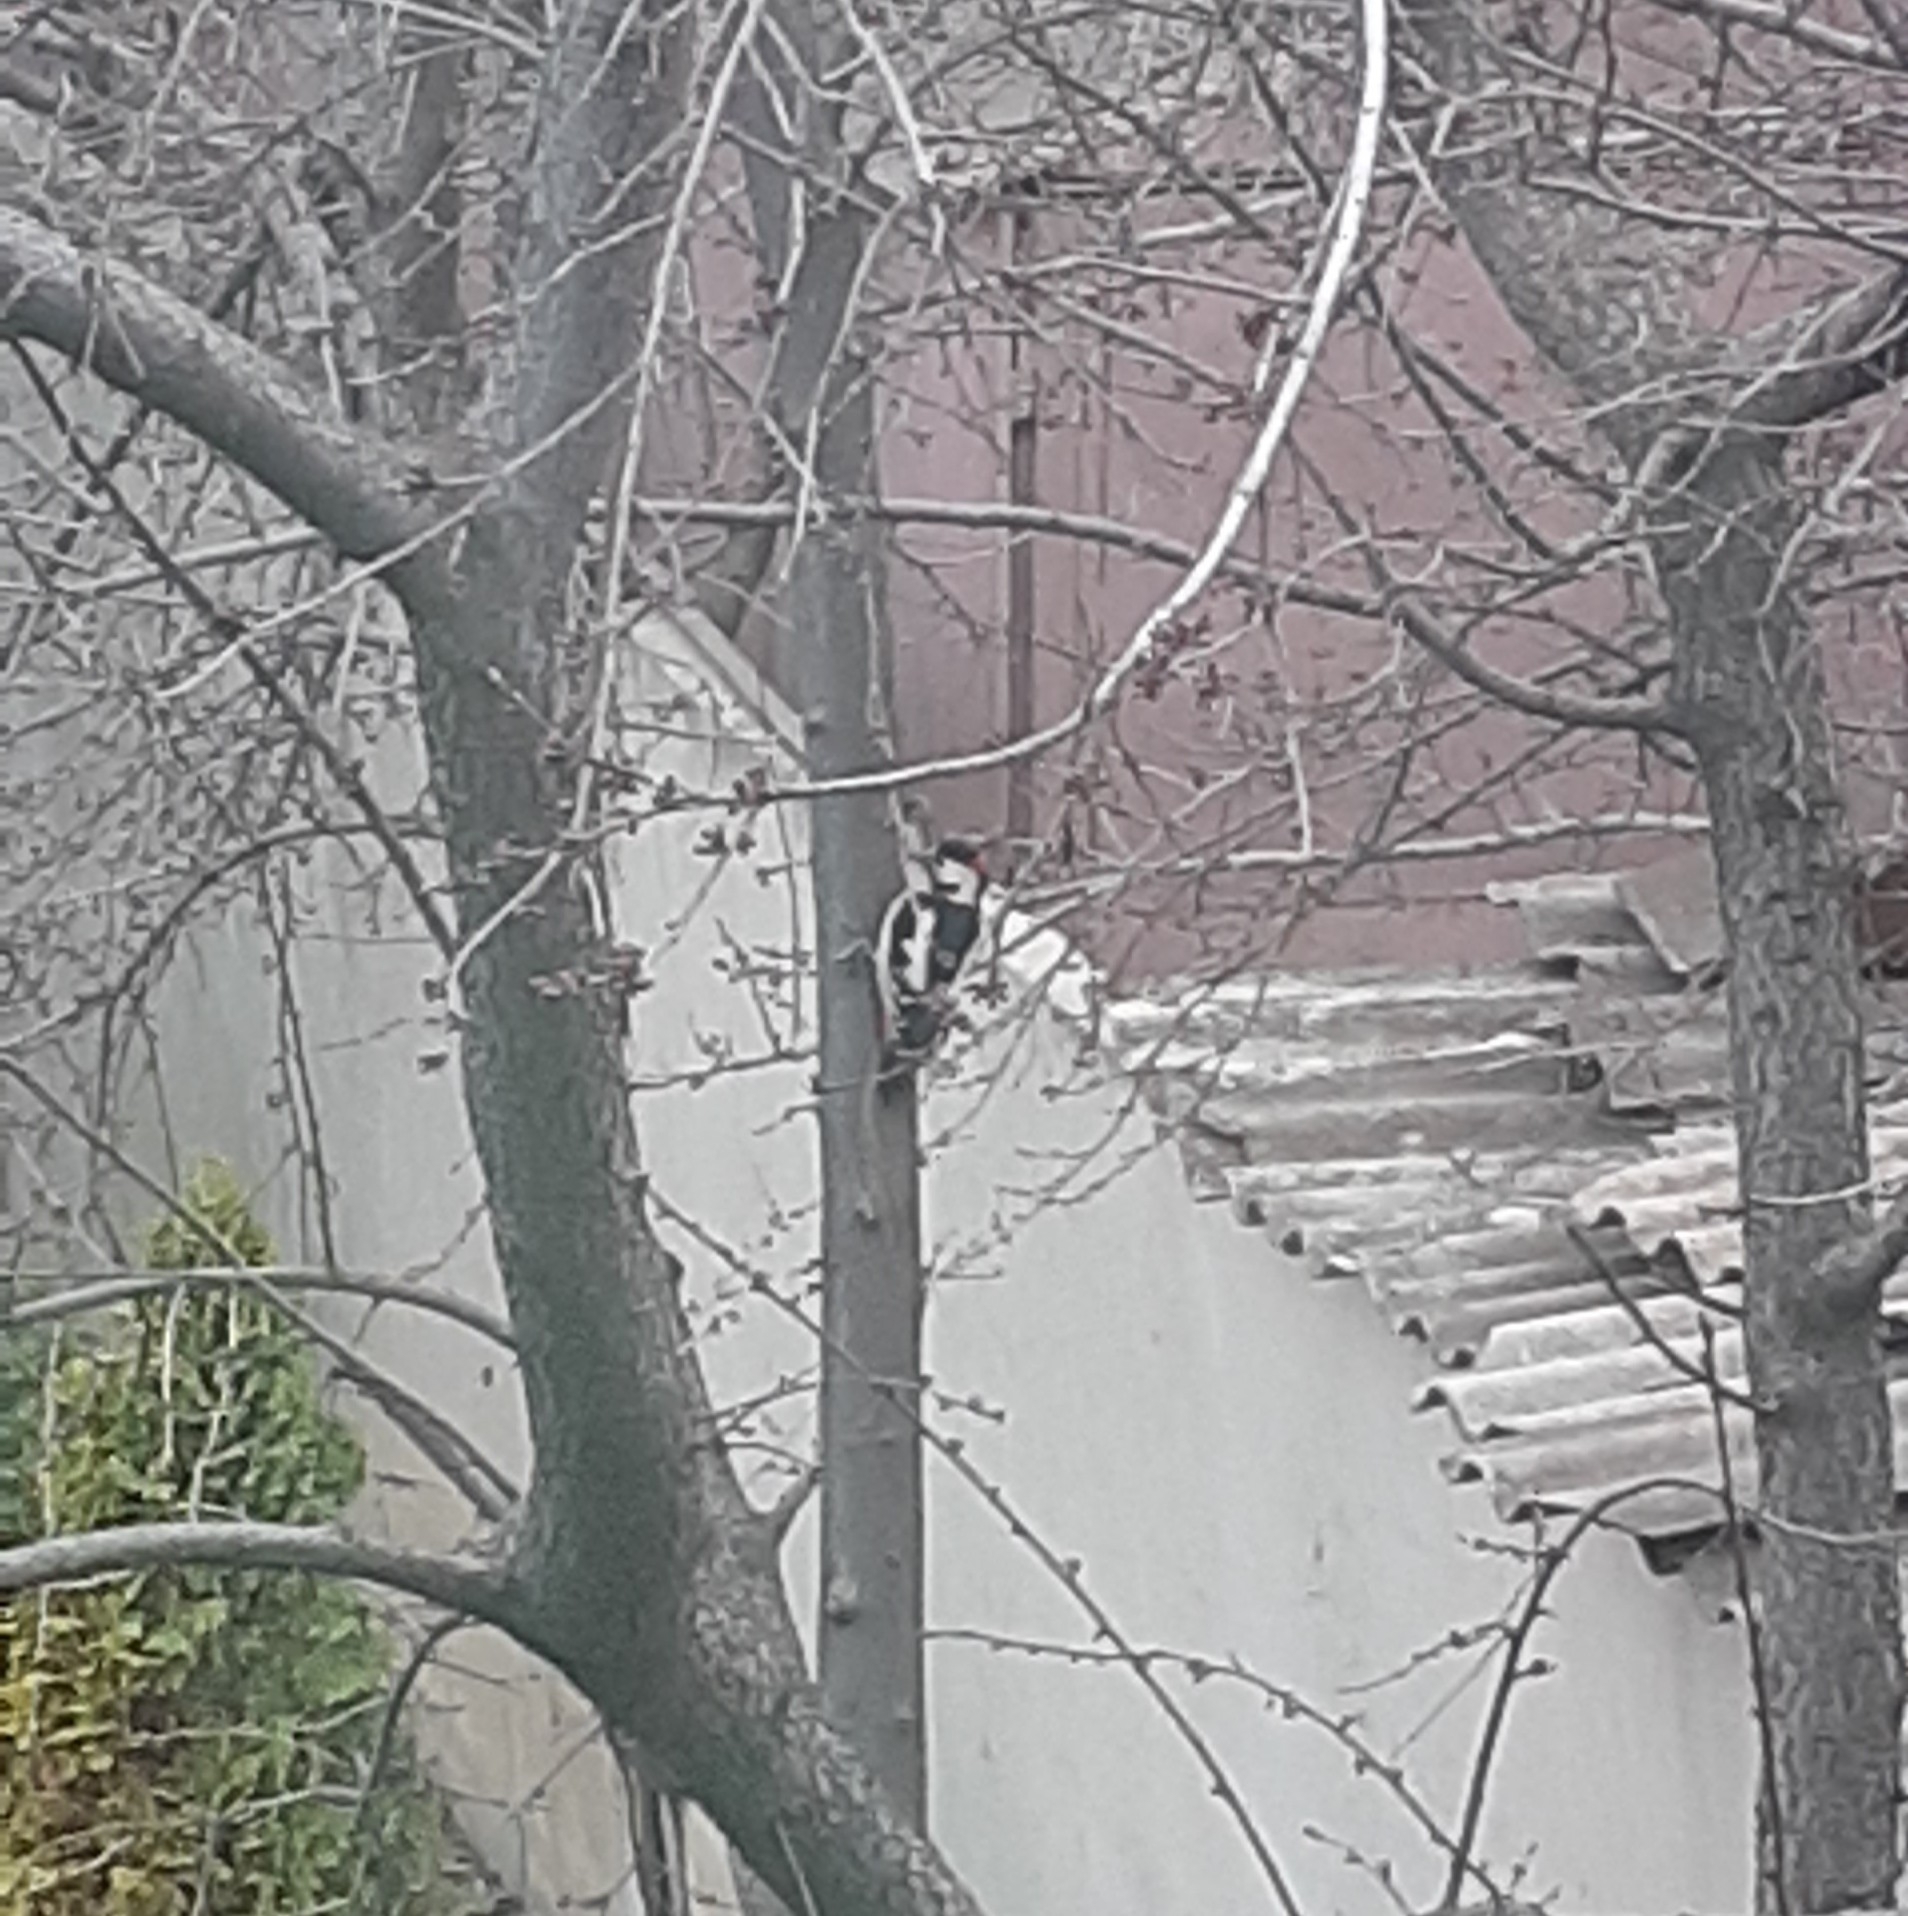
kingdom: Animalia
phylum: Chordata
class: Aves
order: Piciformes
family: Picidae
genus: Dendrocopos
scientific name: Dendrocopos syriacus
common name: Syrian woodpecker
